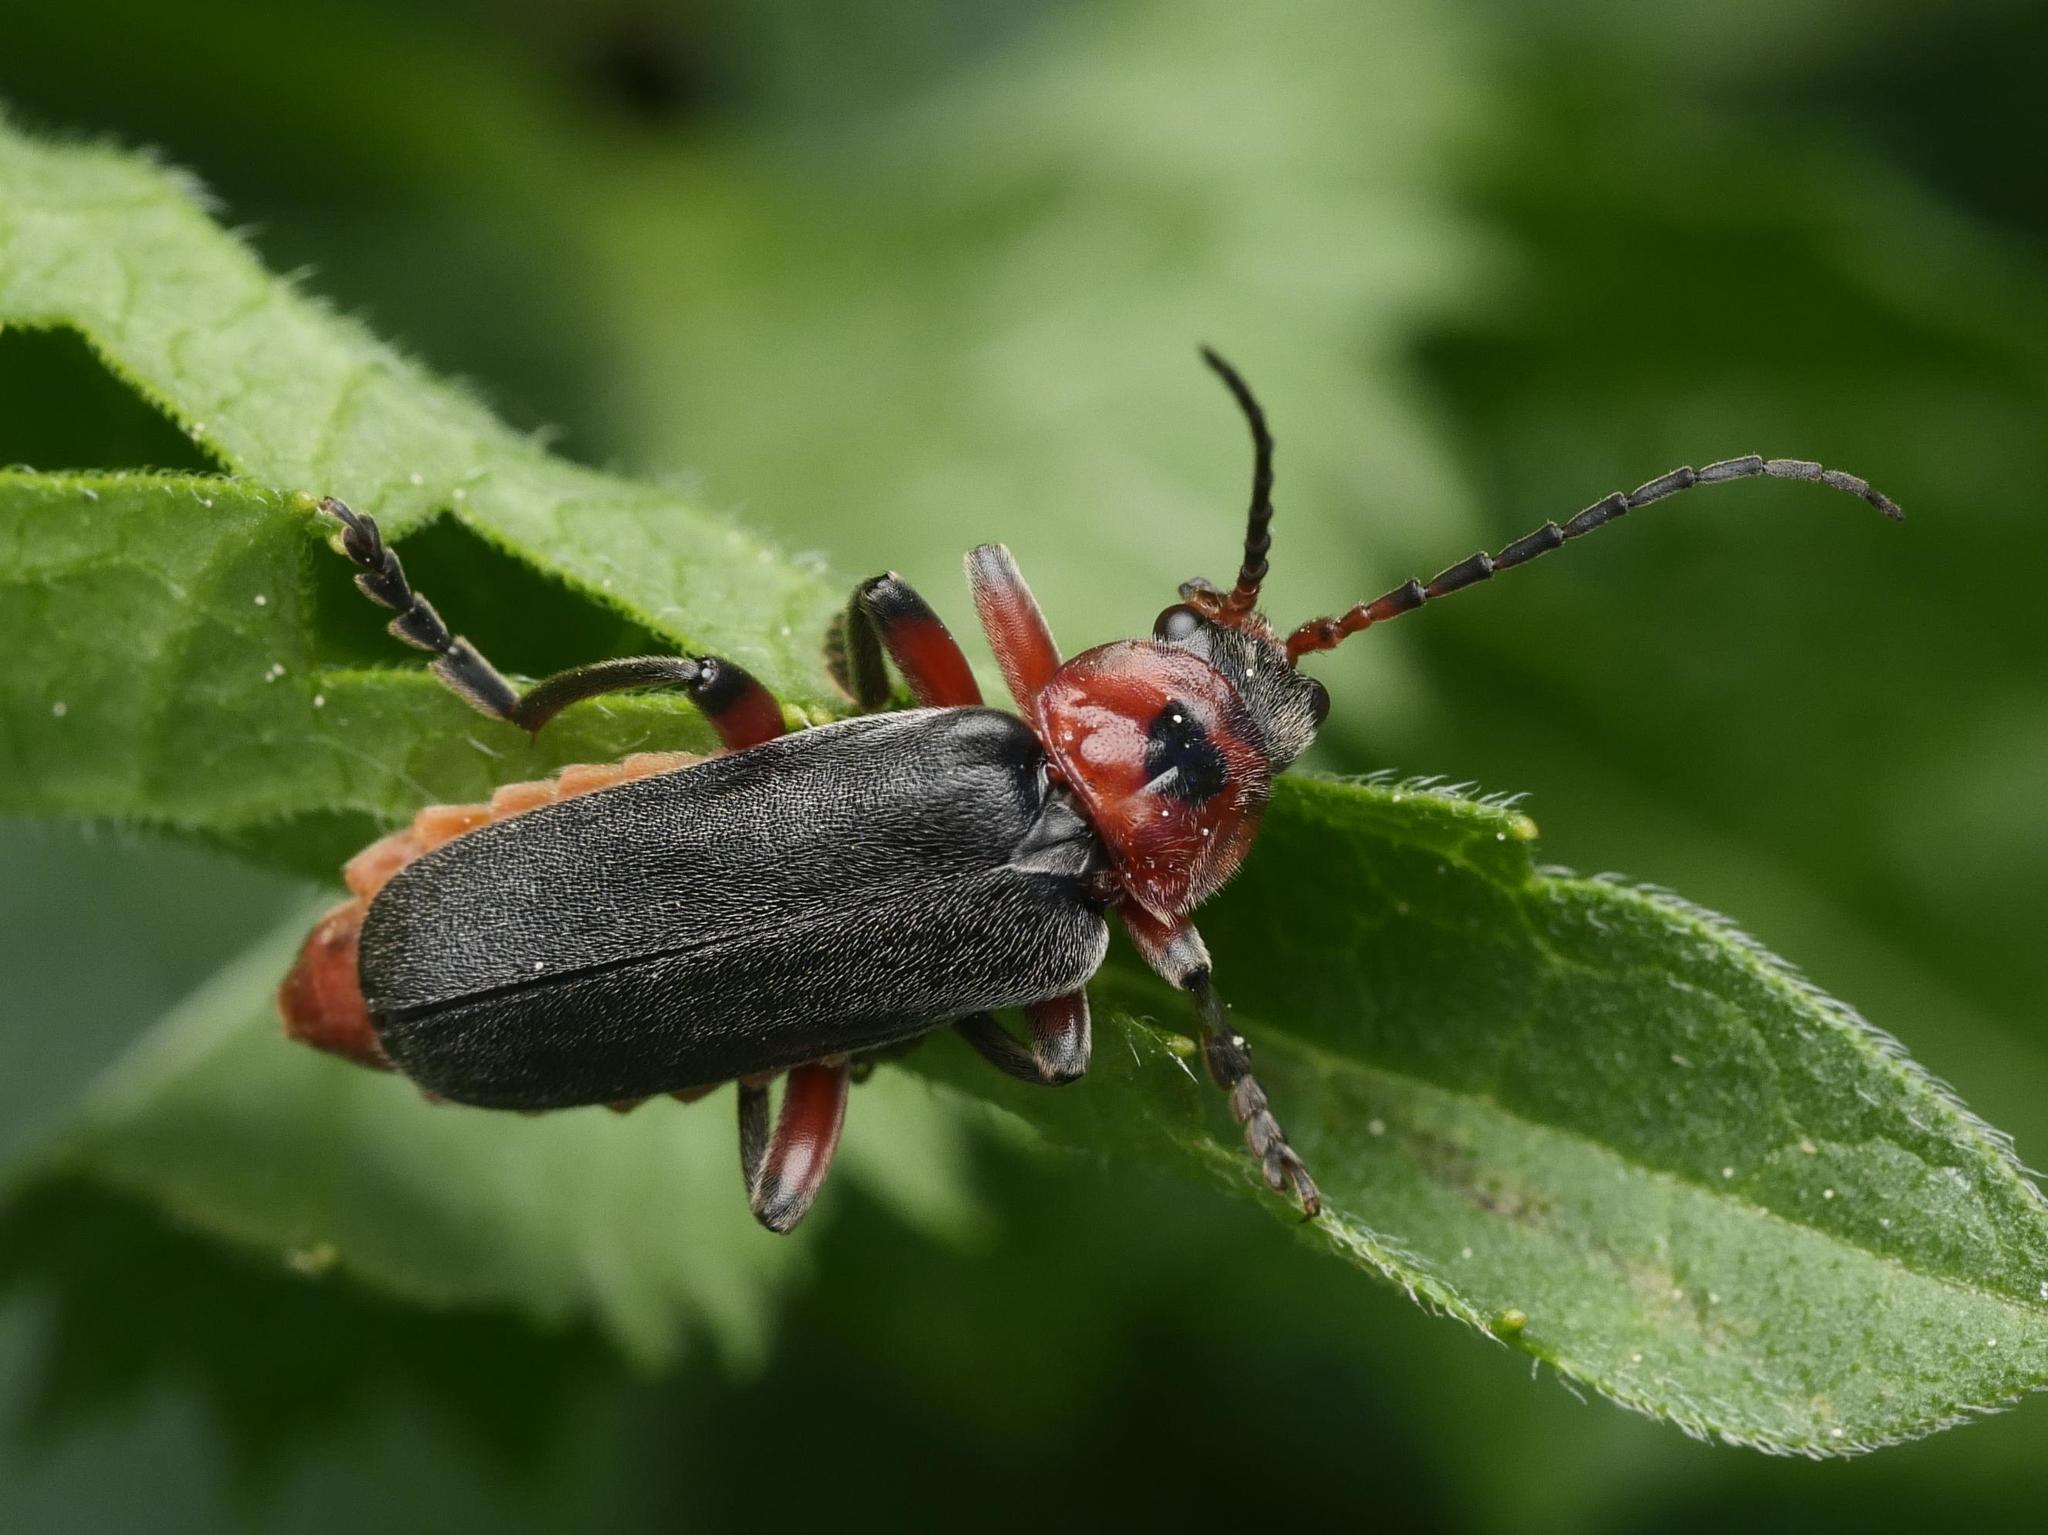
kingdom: Animalia
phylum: Arthropoda
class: Insecta
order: Coleoptera
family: Cantharidae
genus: Cantharis
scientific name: Cantharis rustica
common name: Soldier beetle
